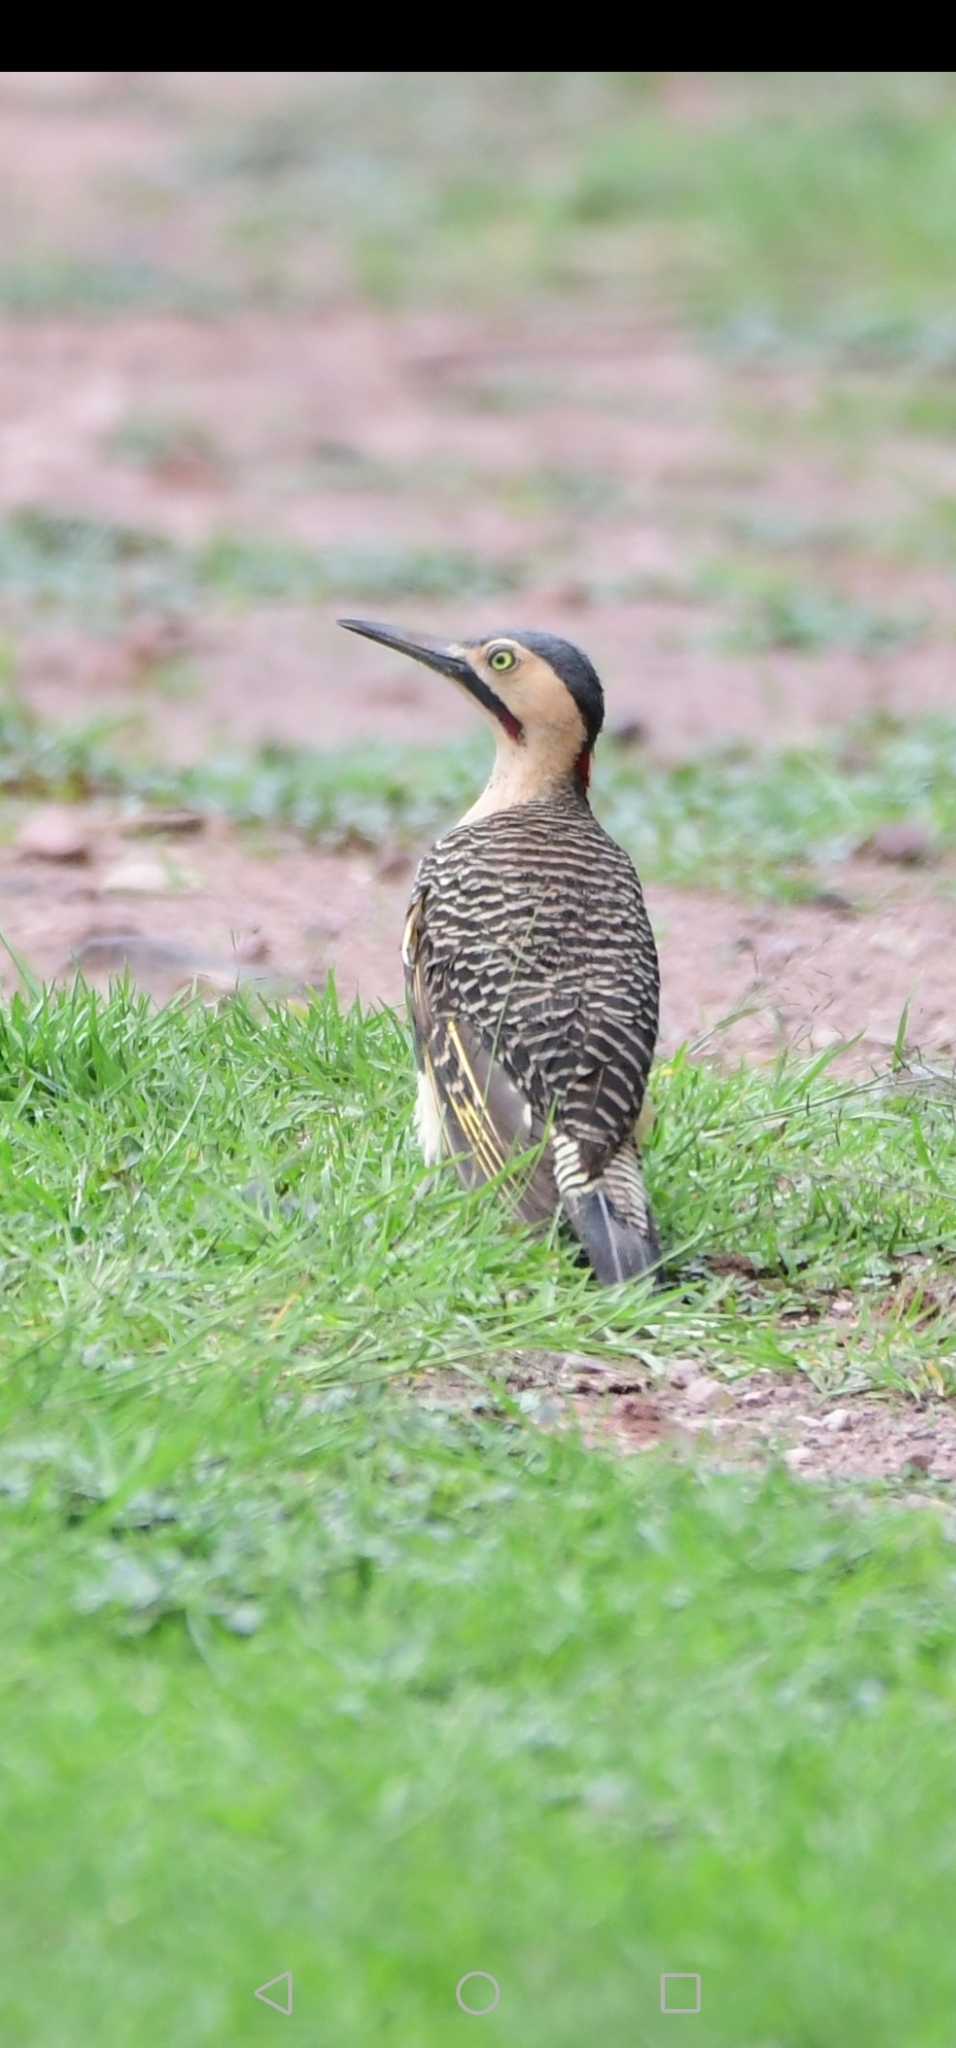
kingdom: Animalia
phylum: Chordata
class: Aves
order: Piciformes
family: Picidae
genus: Colaptes
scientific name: Colaptes rupicola
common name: Andean flicker
